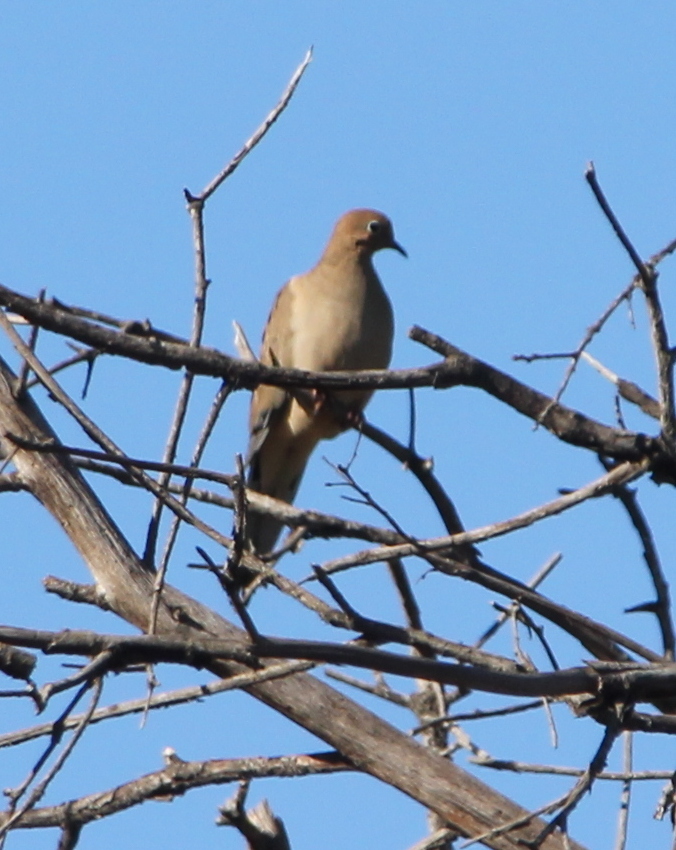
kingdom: Animalia
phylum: Chordata
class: Aves
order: Columbiformes
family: Columbidae
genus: Zenaida
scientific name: Zenaida macroura
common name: Mourning dove
